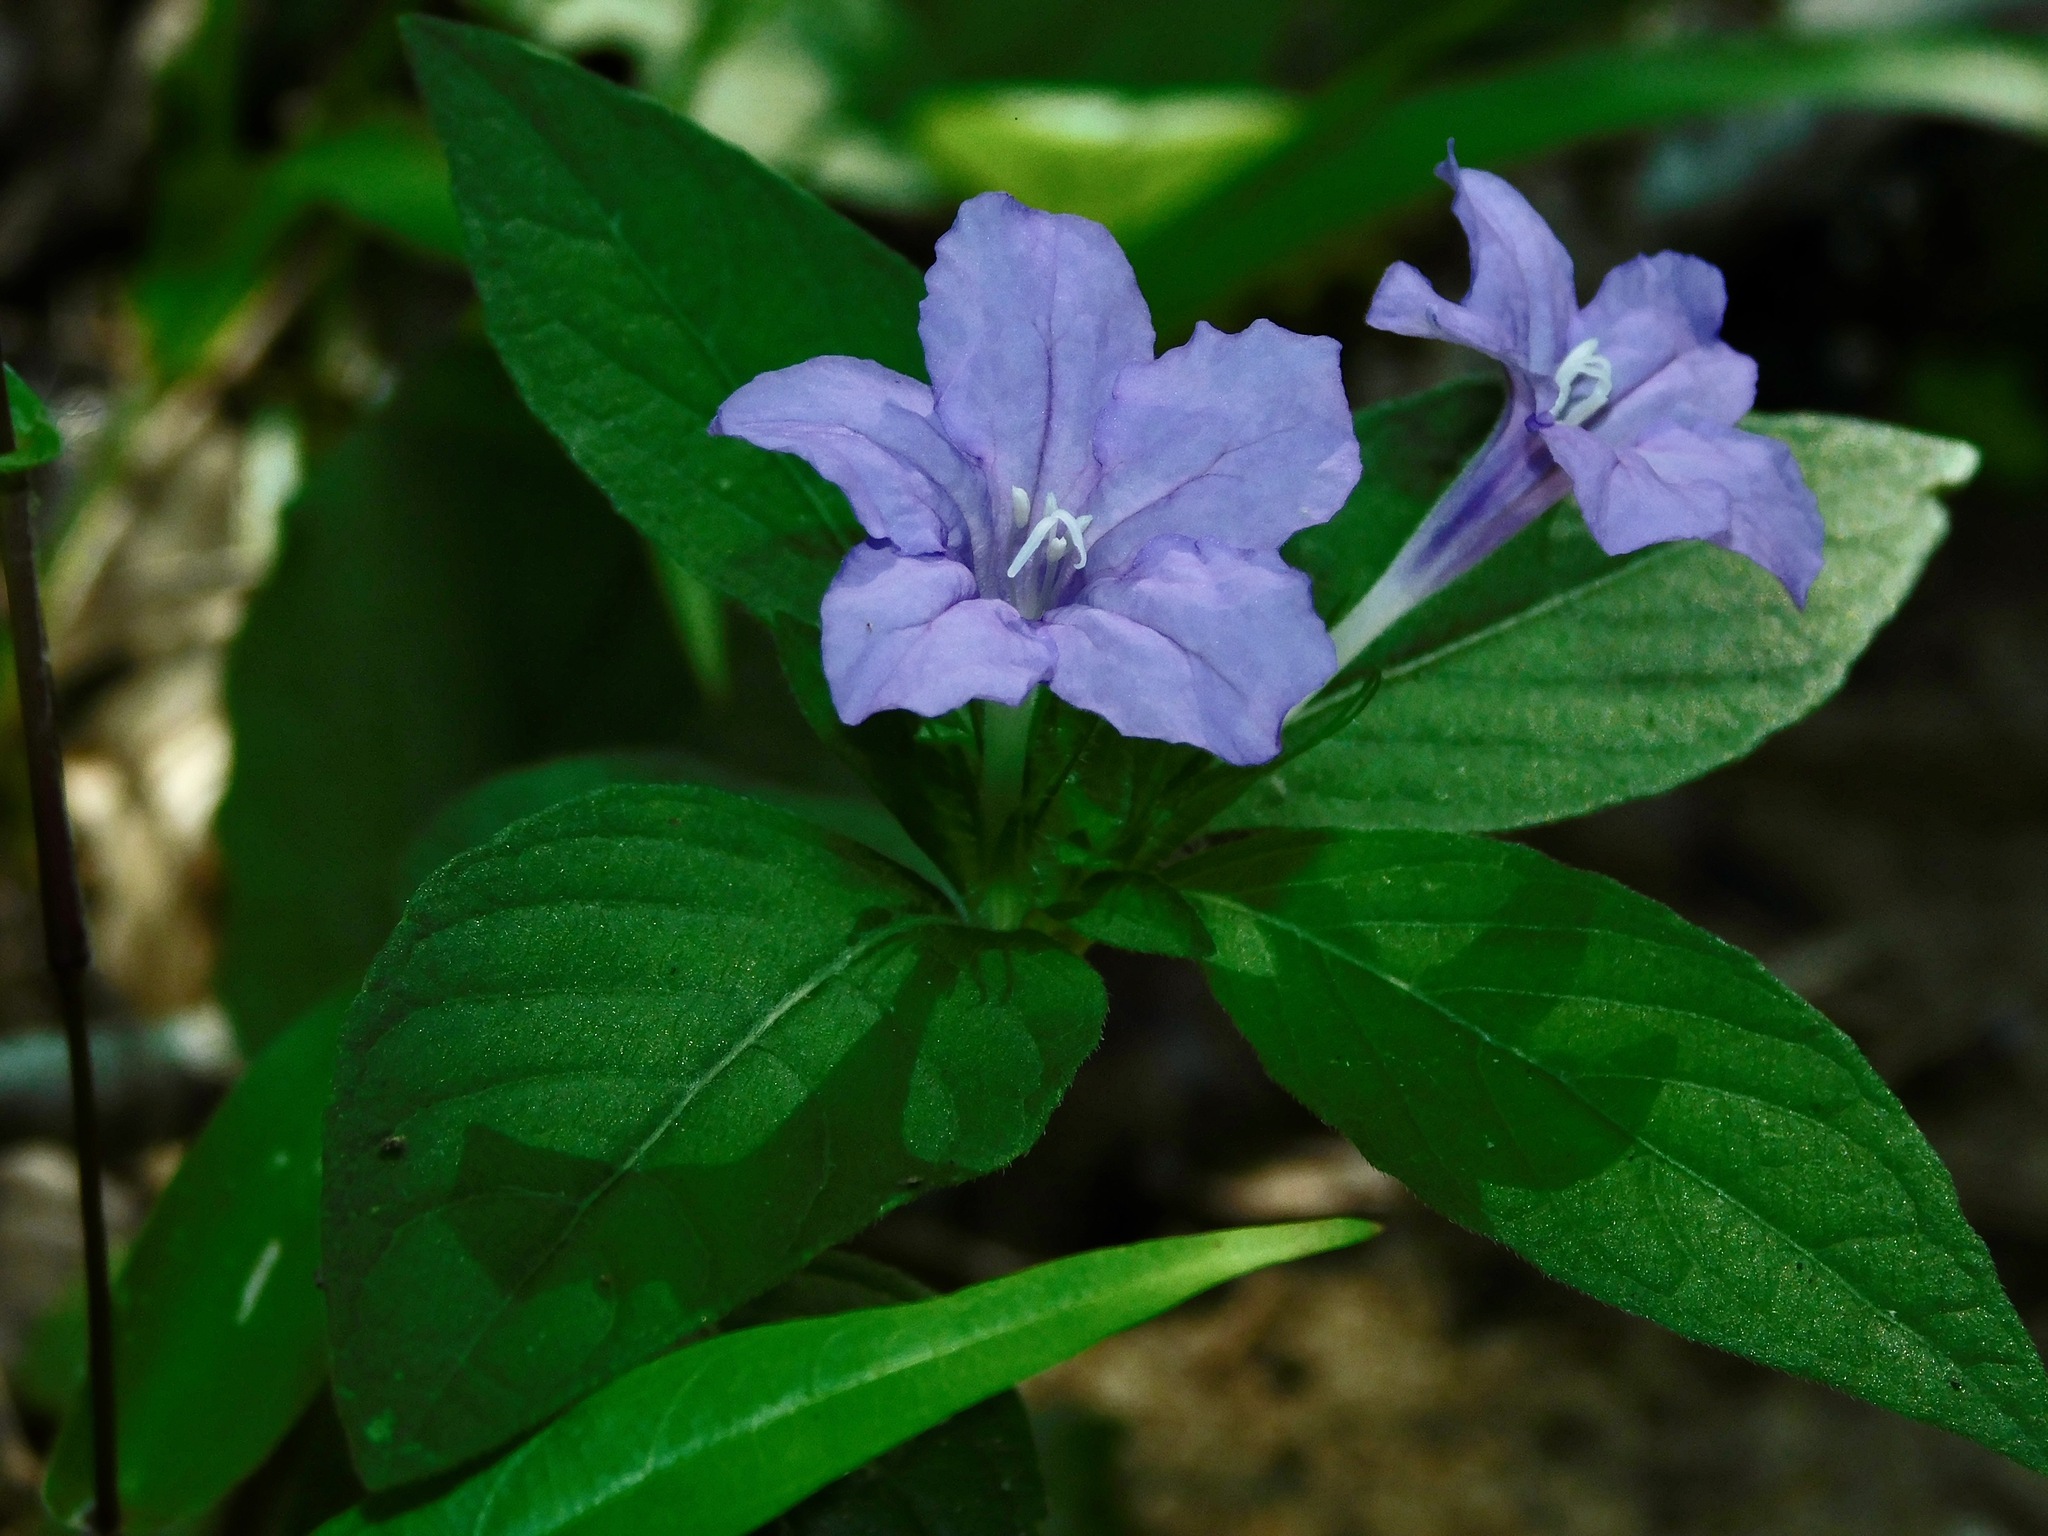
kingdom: Plantae
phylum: Tracheophyta
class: Magnoliopsida
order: Lamiales
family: Acanthaceae
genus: Ruellia
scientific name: Ruellia caroliniensis
